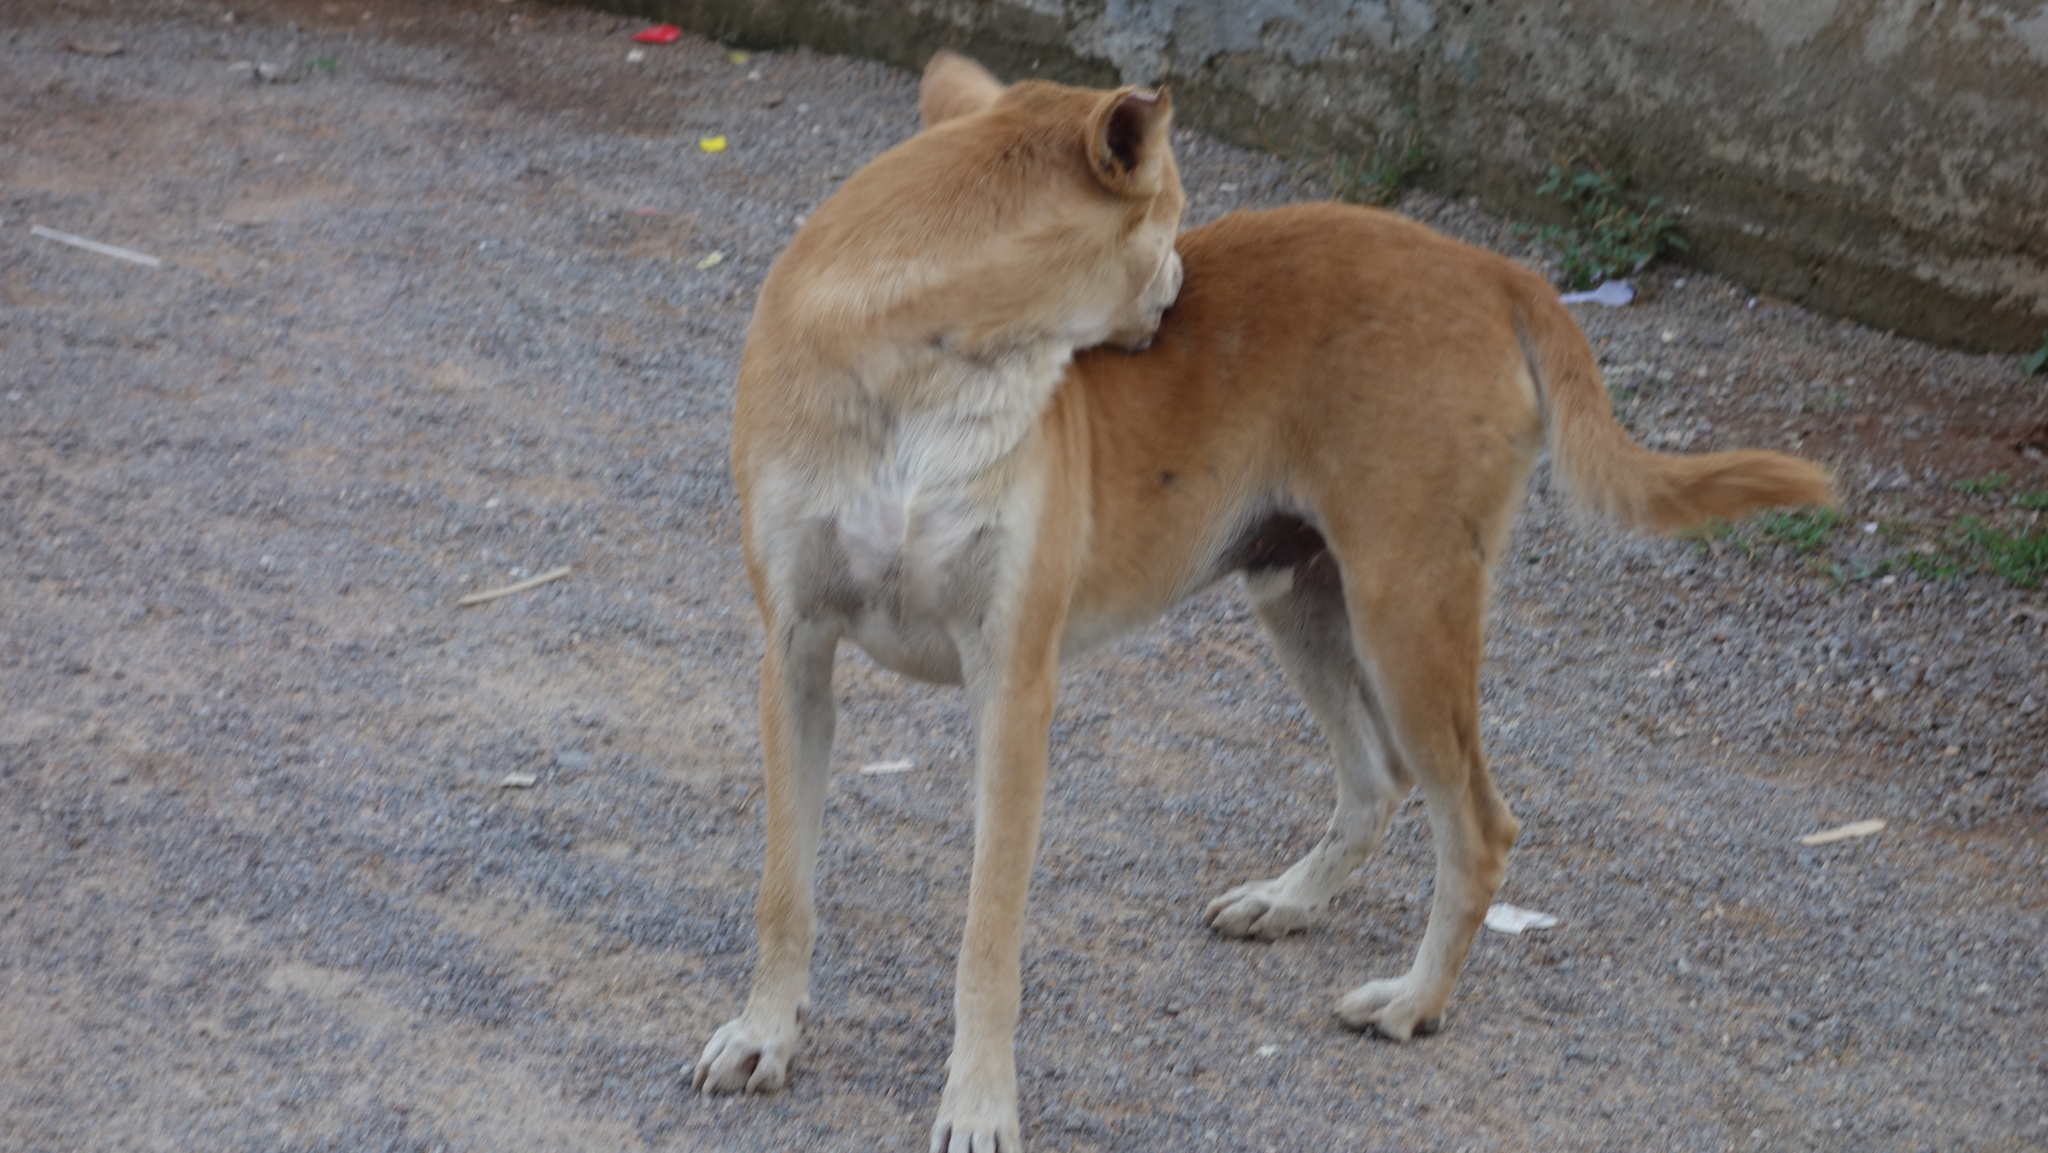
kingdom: Animalia
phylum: Chordata
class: Mammalia
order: Carnivora
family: Canidae
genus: Canis
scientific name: Canis lupus
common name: Gray wolf
